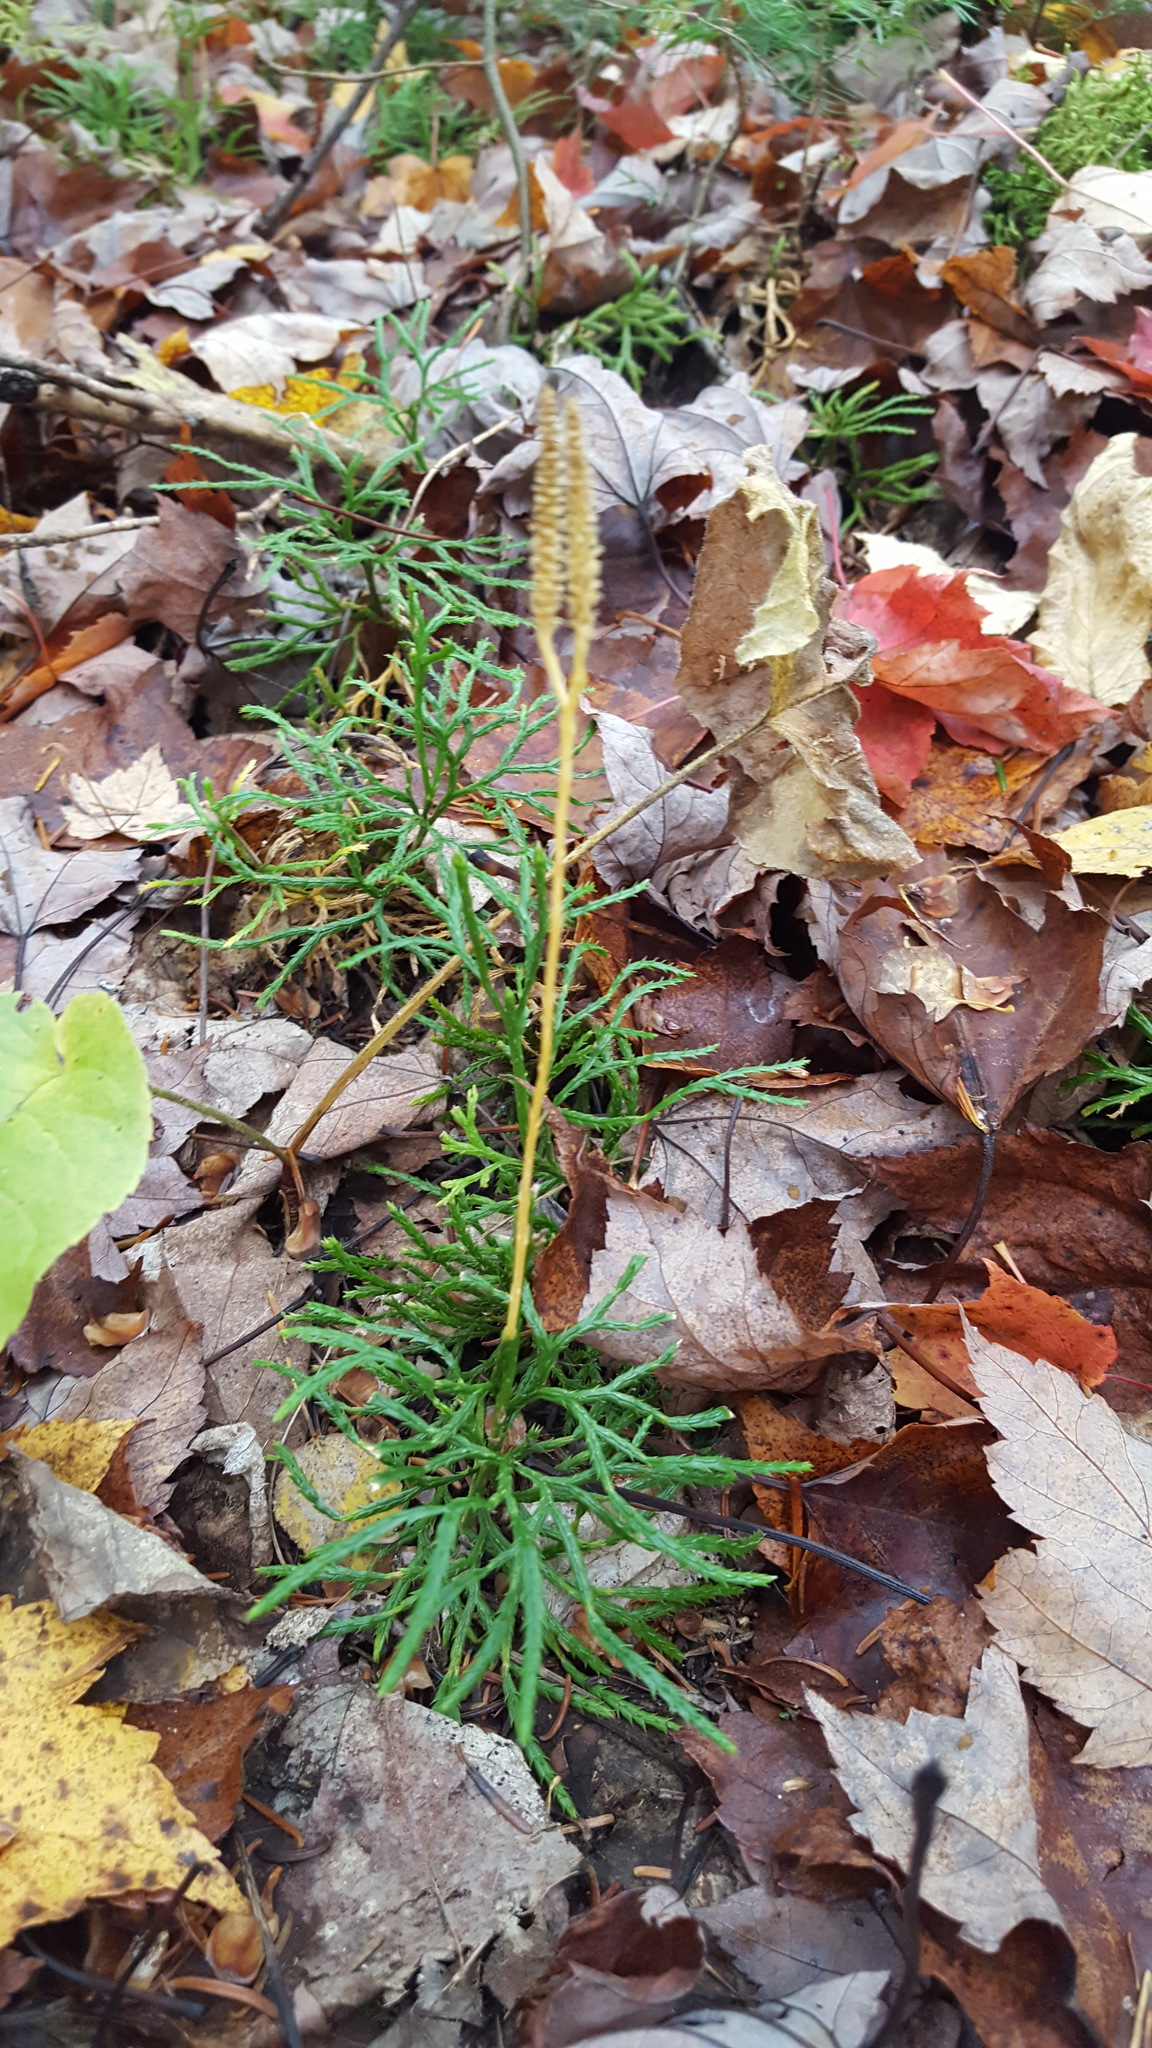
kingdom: Plantae
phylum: Tracheophyta
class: Lycopodiopsida
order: Lycopodiales
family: Lycopodiaceae
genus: Diphasiastrum
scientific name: Diphasiastrum complanatum
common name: Northern running-pine
